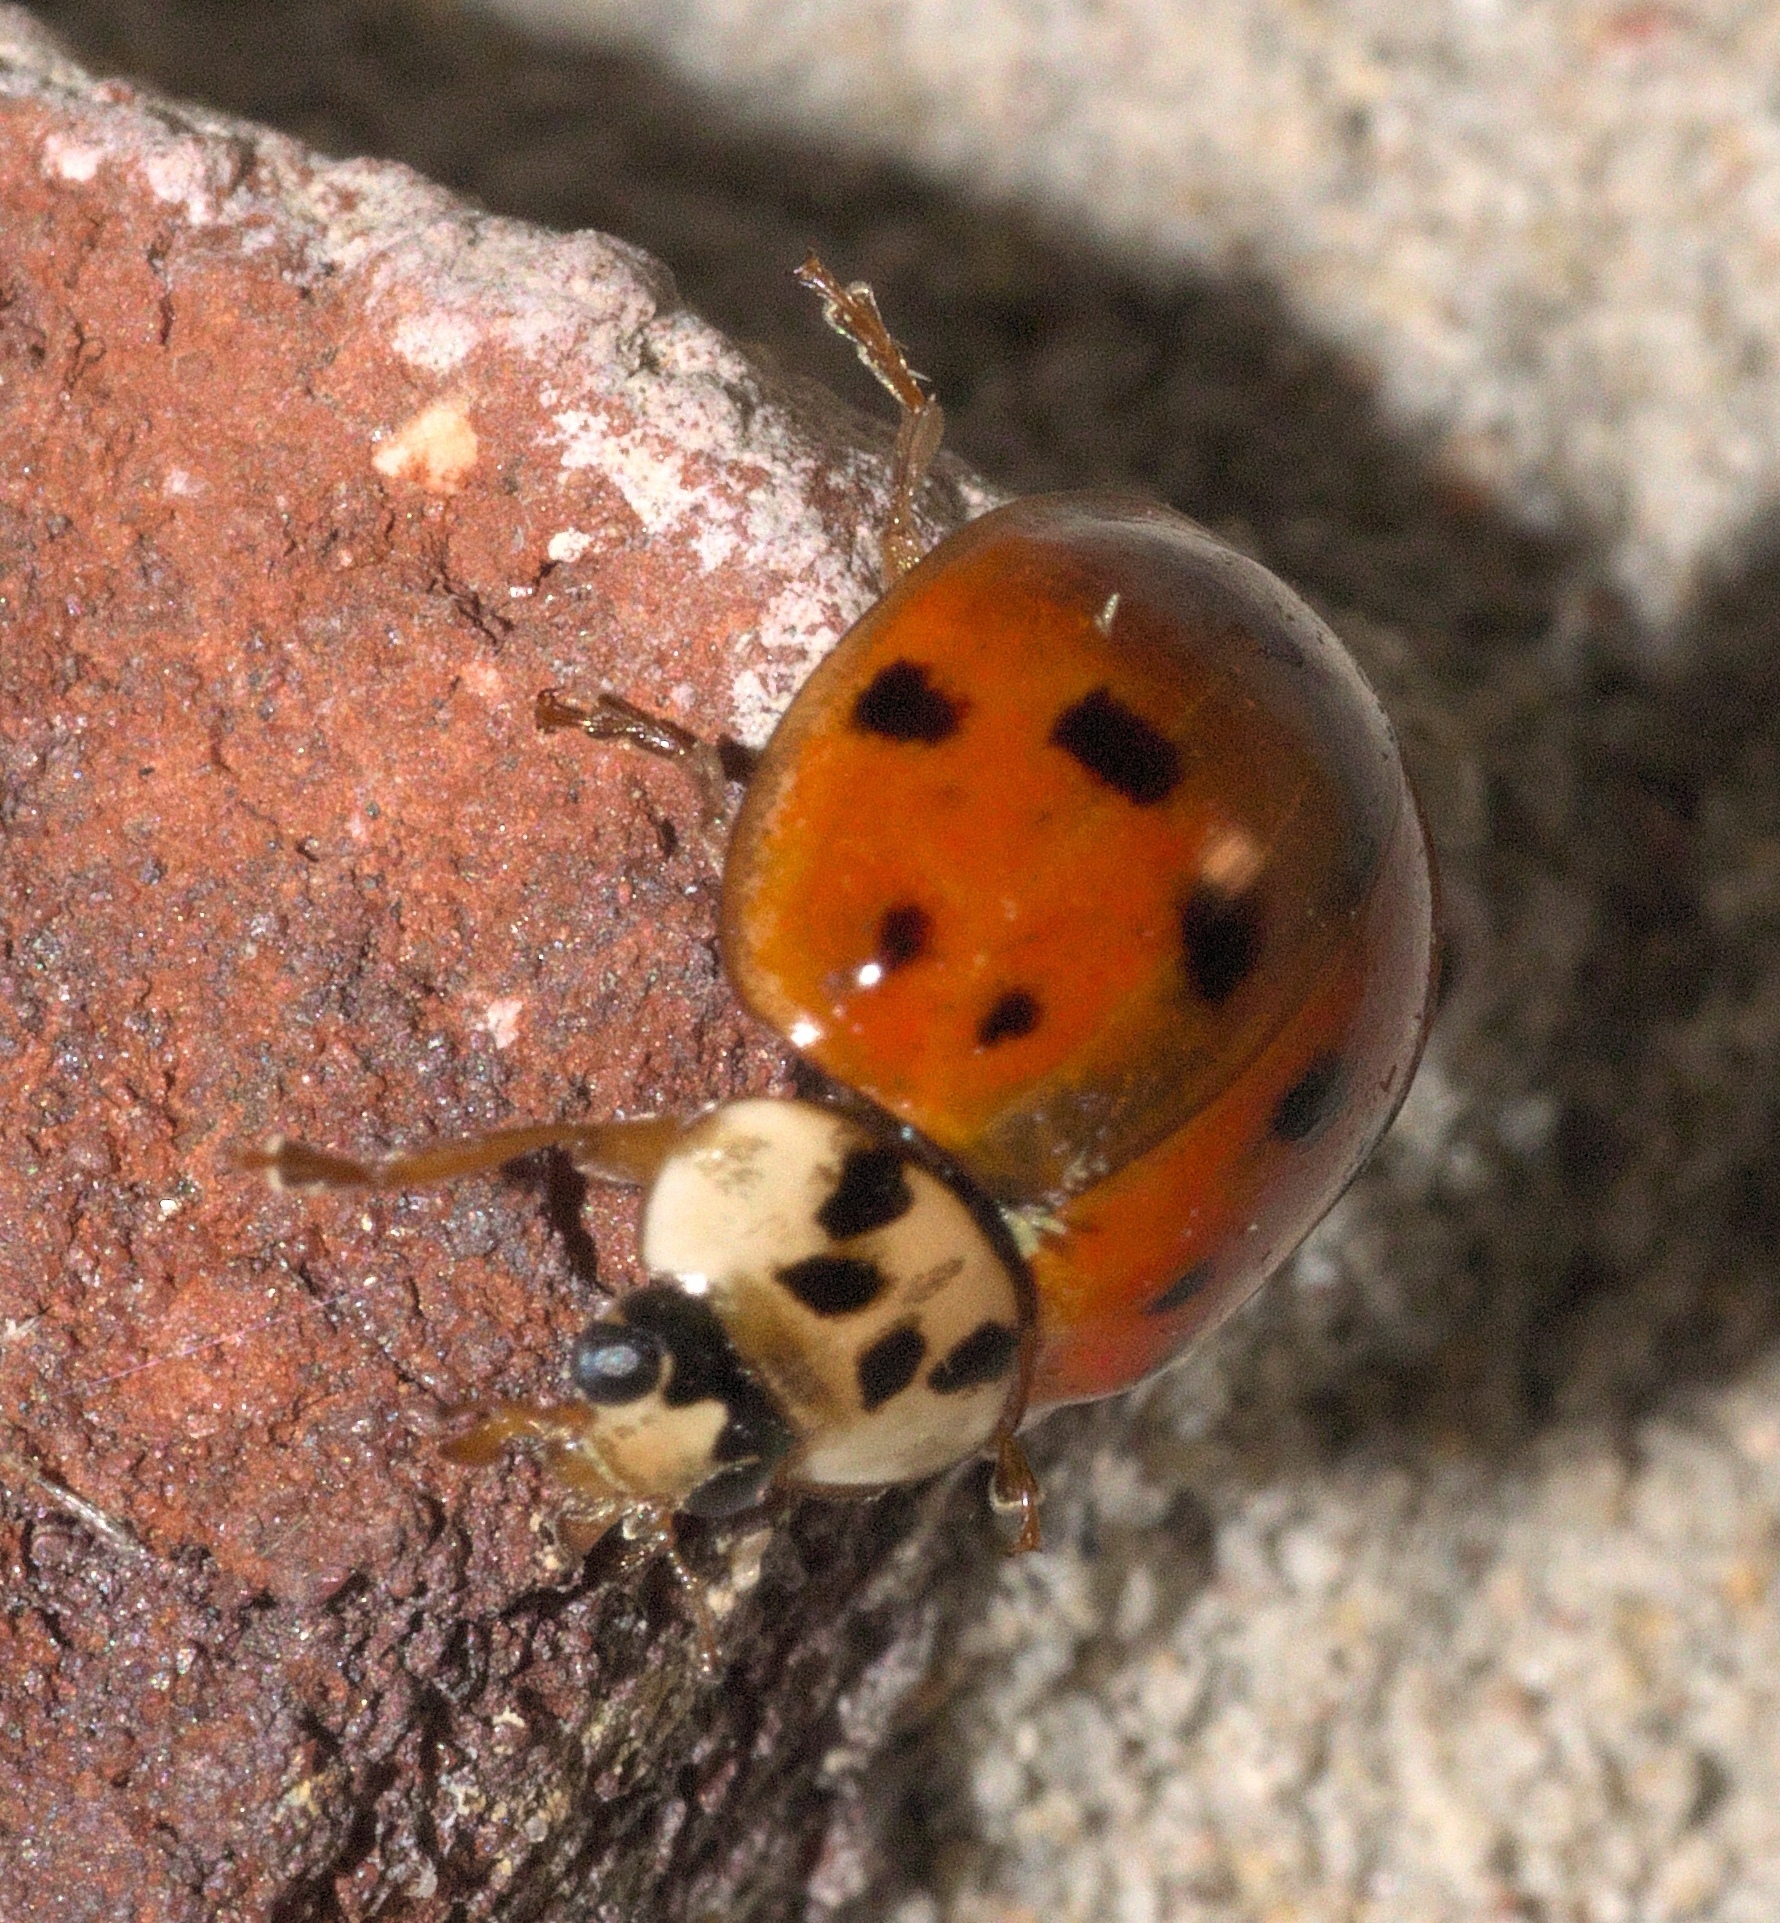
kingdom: Animalia
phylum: Arthropoda
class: Insecta
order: Coleoptera
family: Coccinellidae
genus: Harmonia
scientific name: Harmonia axyridis
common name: Harlequin ladybird
